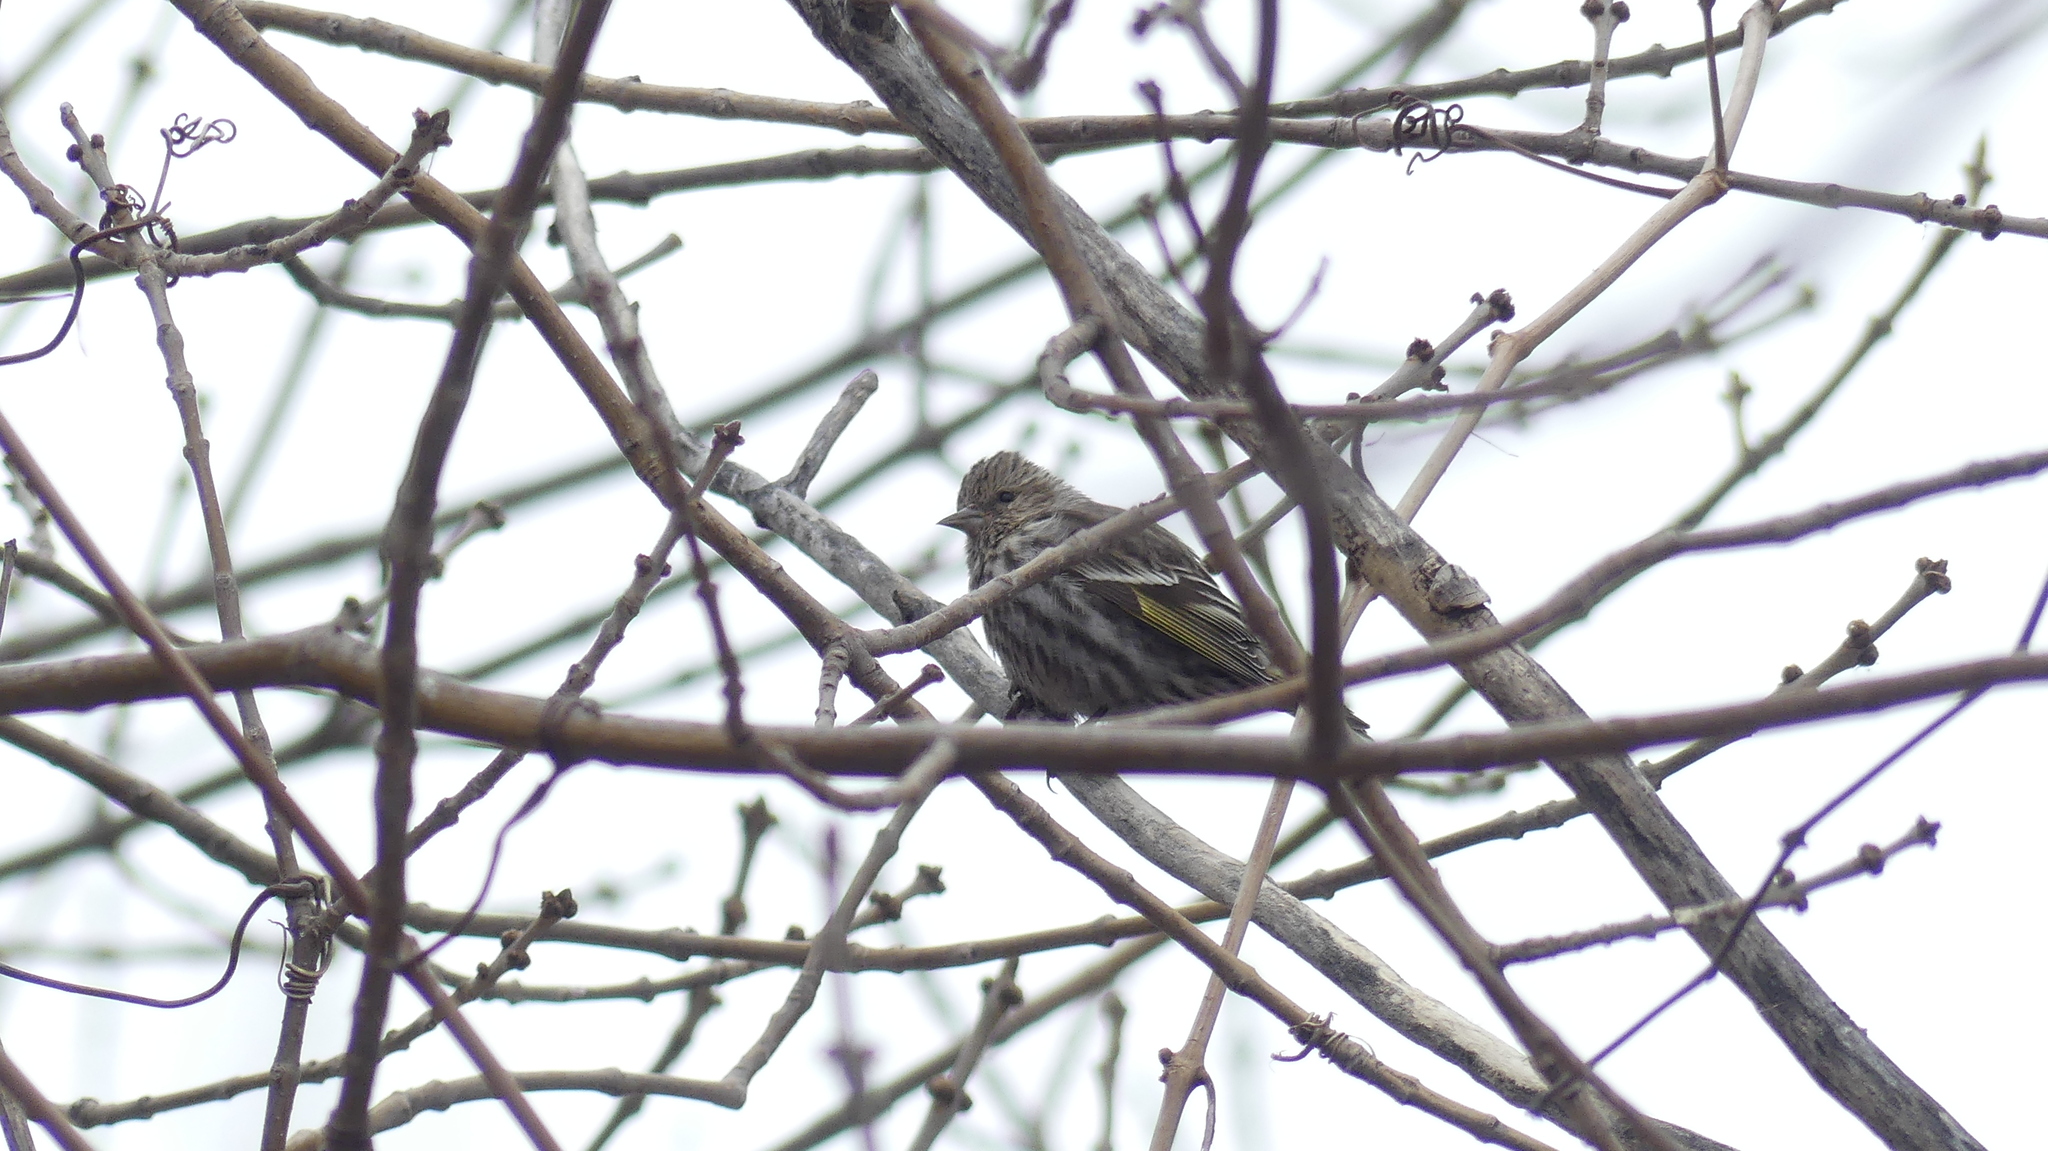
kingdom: Animalia
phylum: Chordata
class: Aves
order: Passeriformes
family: Fringillidae
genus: Spinus
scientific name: Spinus pinus
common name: Pine siskin
